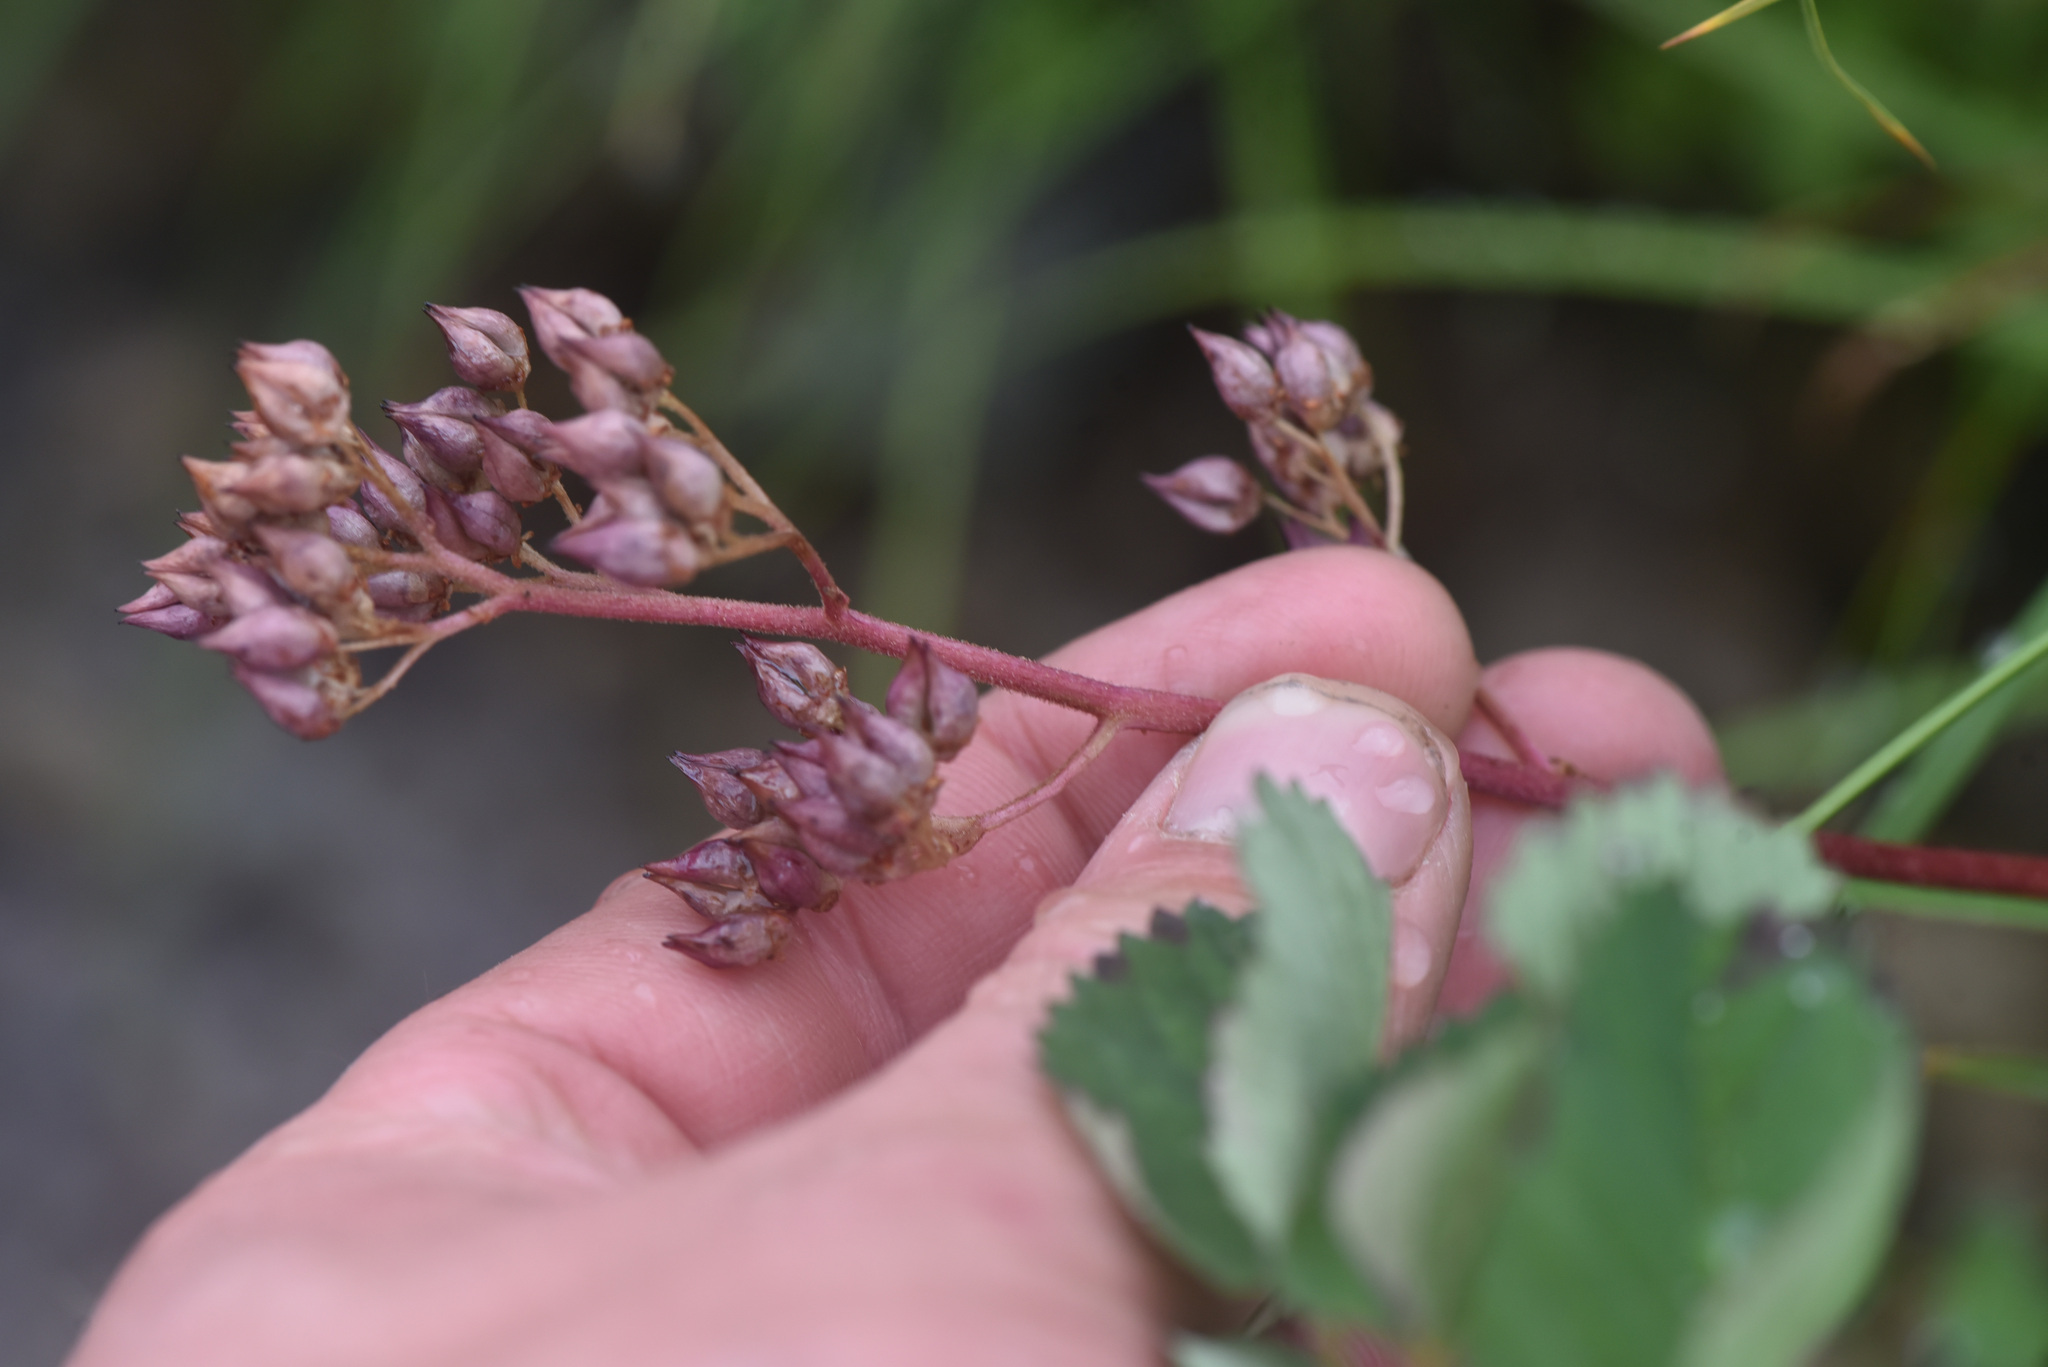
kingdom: Plantae
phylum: Tracheophyta
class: Magnoliopsida
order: Saxifragales
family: Saxifragaceae
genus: Leptarrhena
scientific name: Leptarrhena pyrolifolia
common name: Leatherleaf-saxifrage
